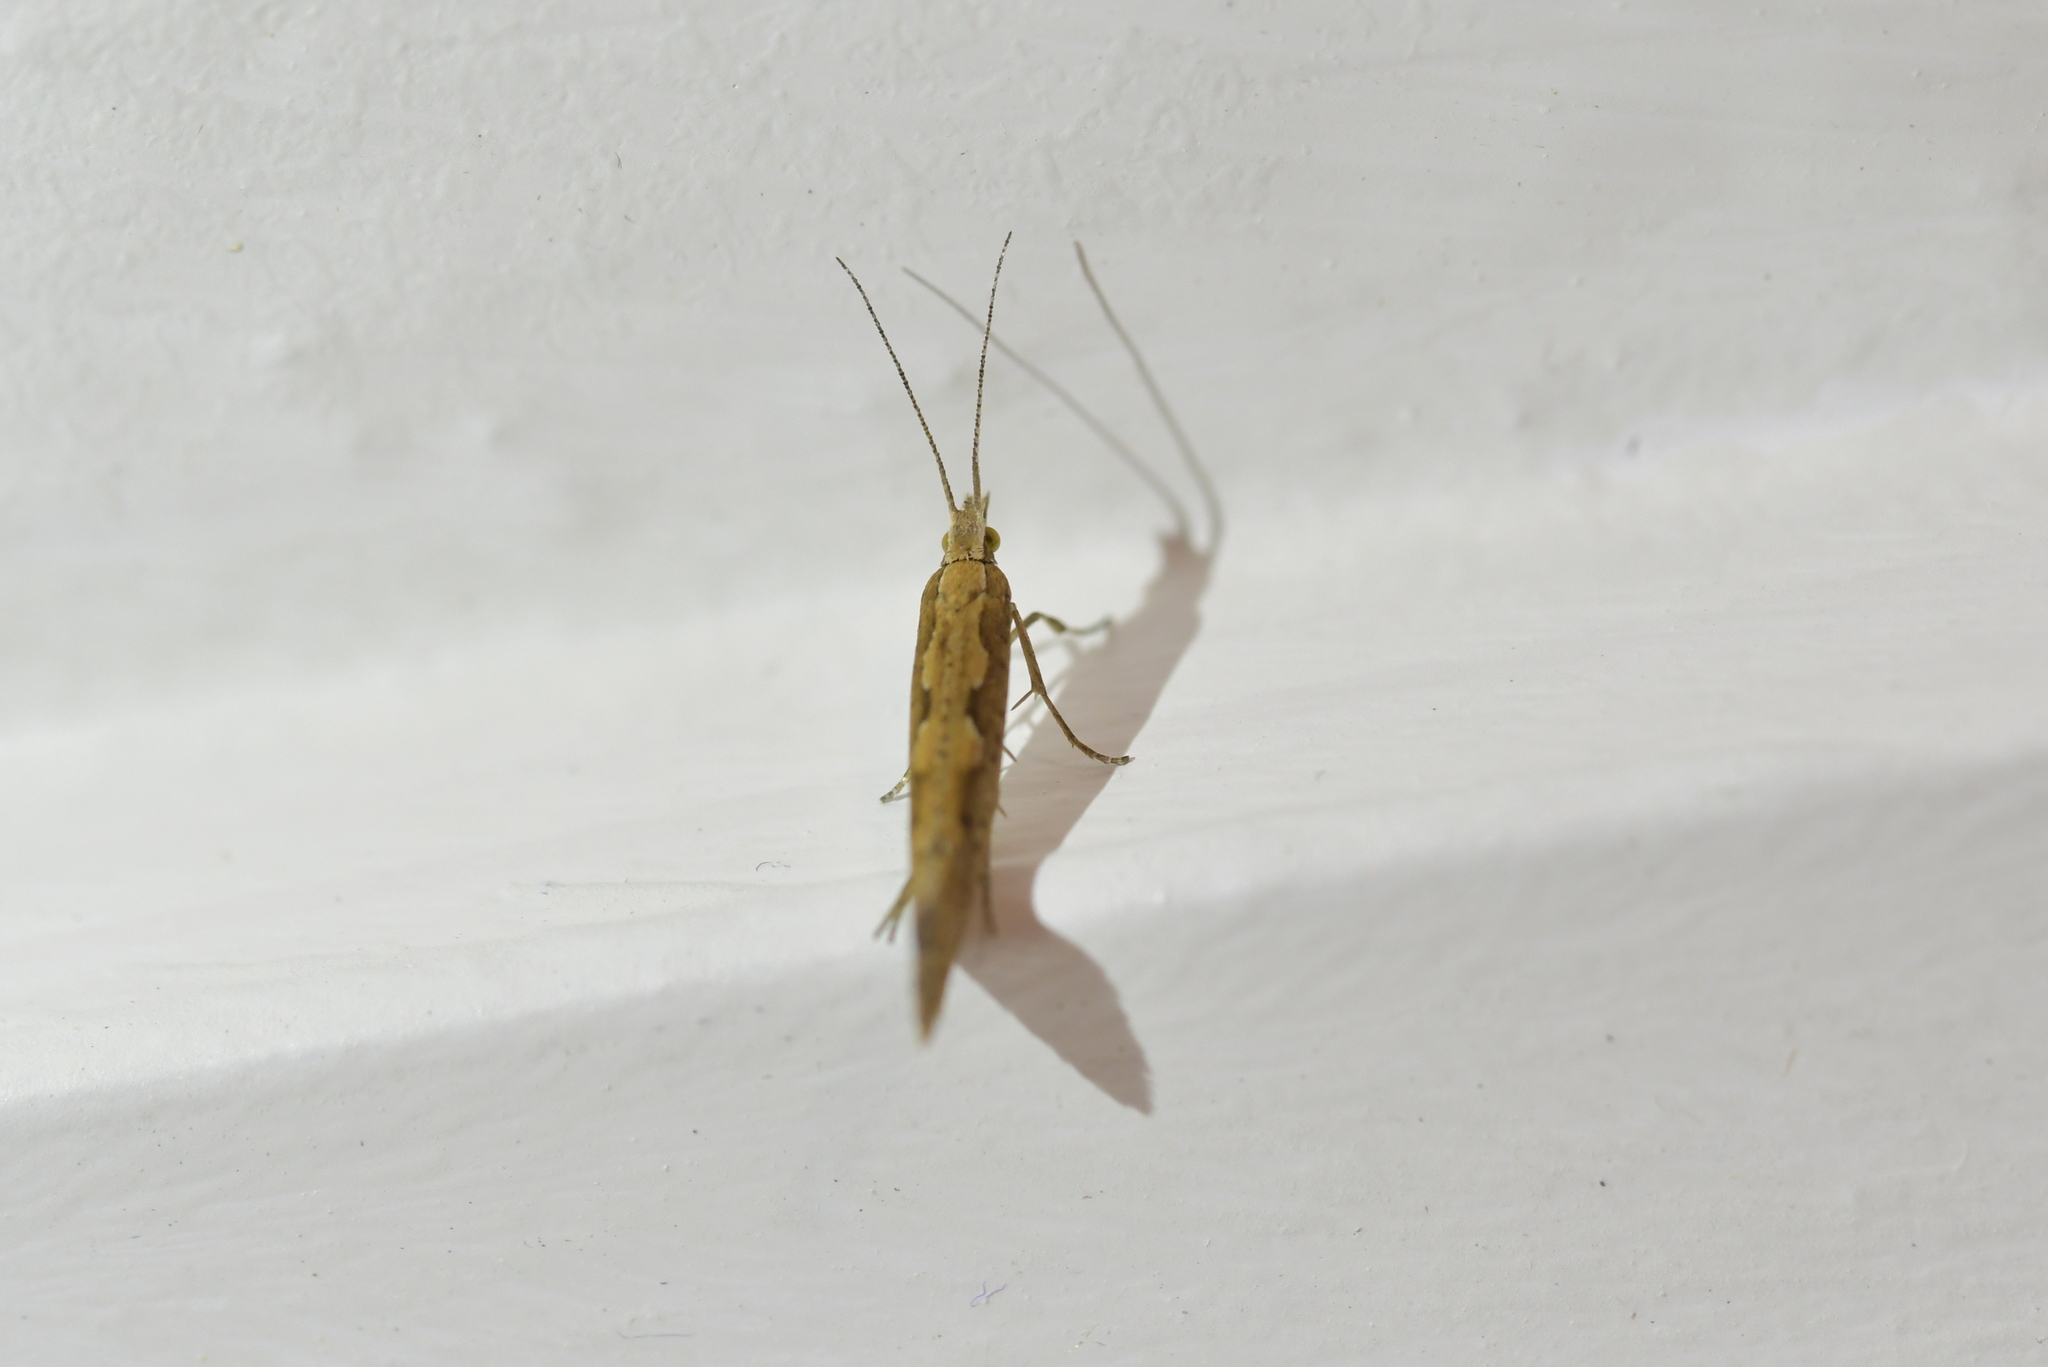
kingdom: Animalia
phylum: Arthropoda
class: Insecta
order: Lepidoptera
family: Plutellidae
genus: Plutella
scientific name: Plutella xylostella
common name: Diamond-back moth
